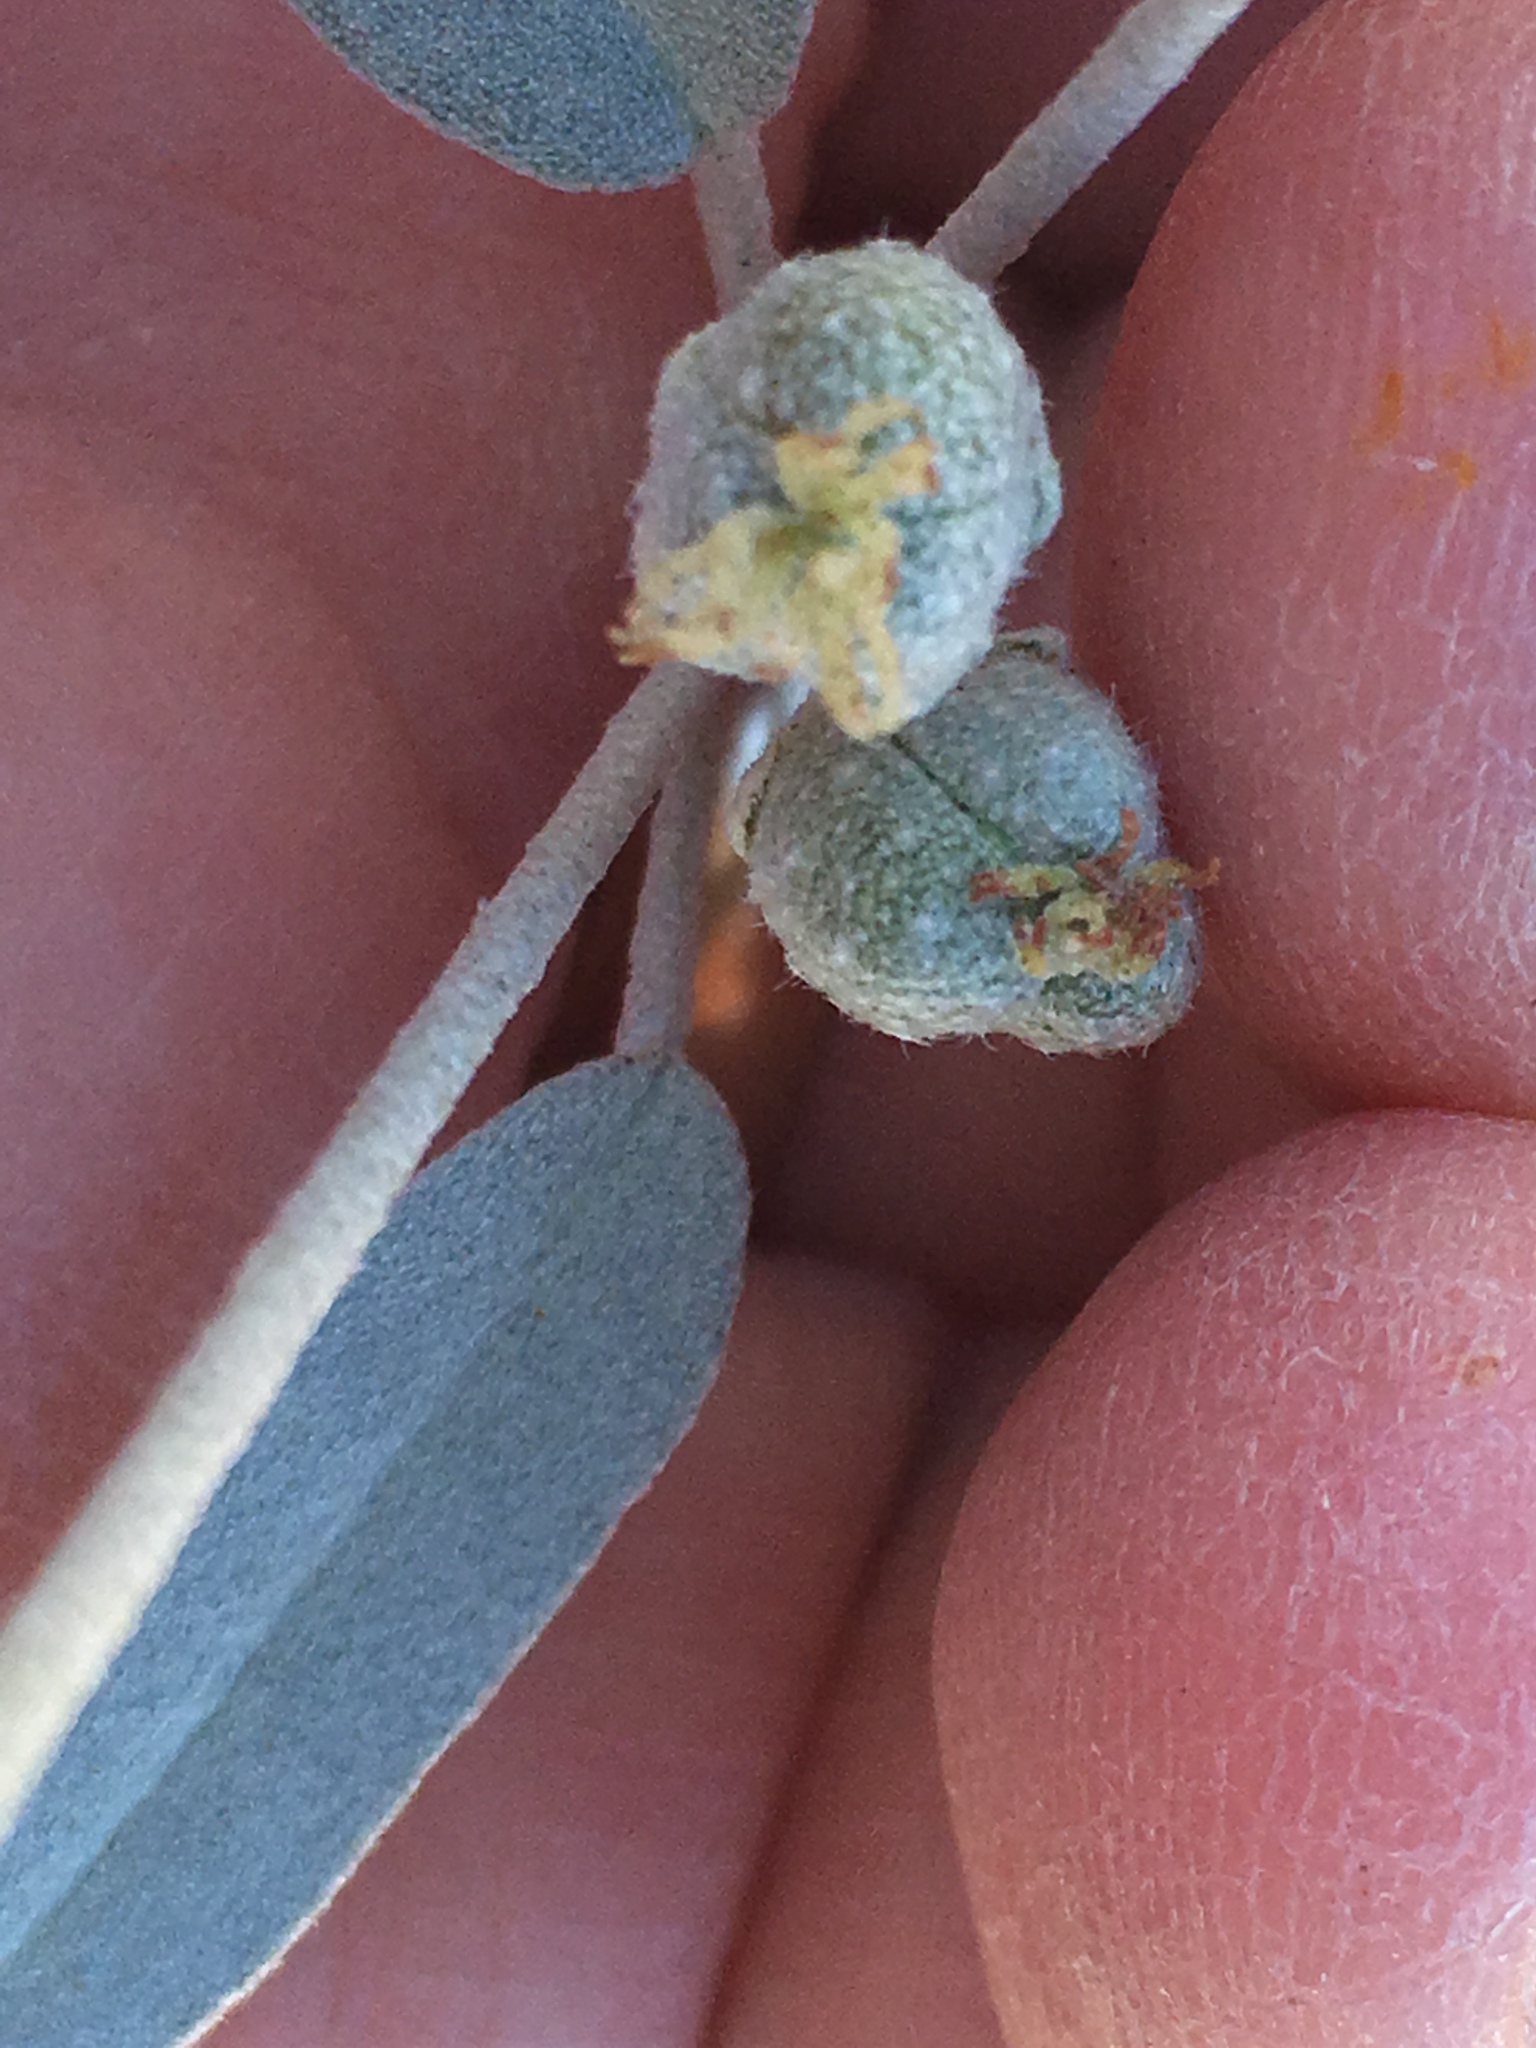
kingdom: Plantae
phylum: Tracheophyta
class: Magnoliopsida
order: Malpighiales
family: Euphorbiaceae
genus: Croton
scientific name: Croton californicus
